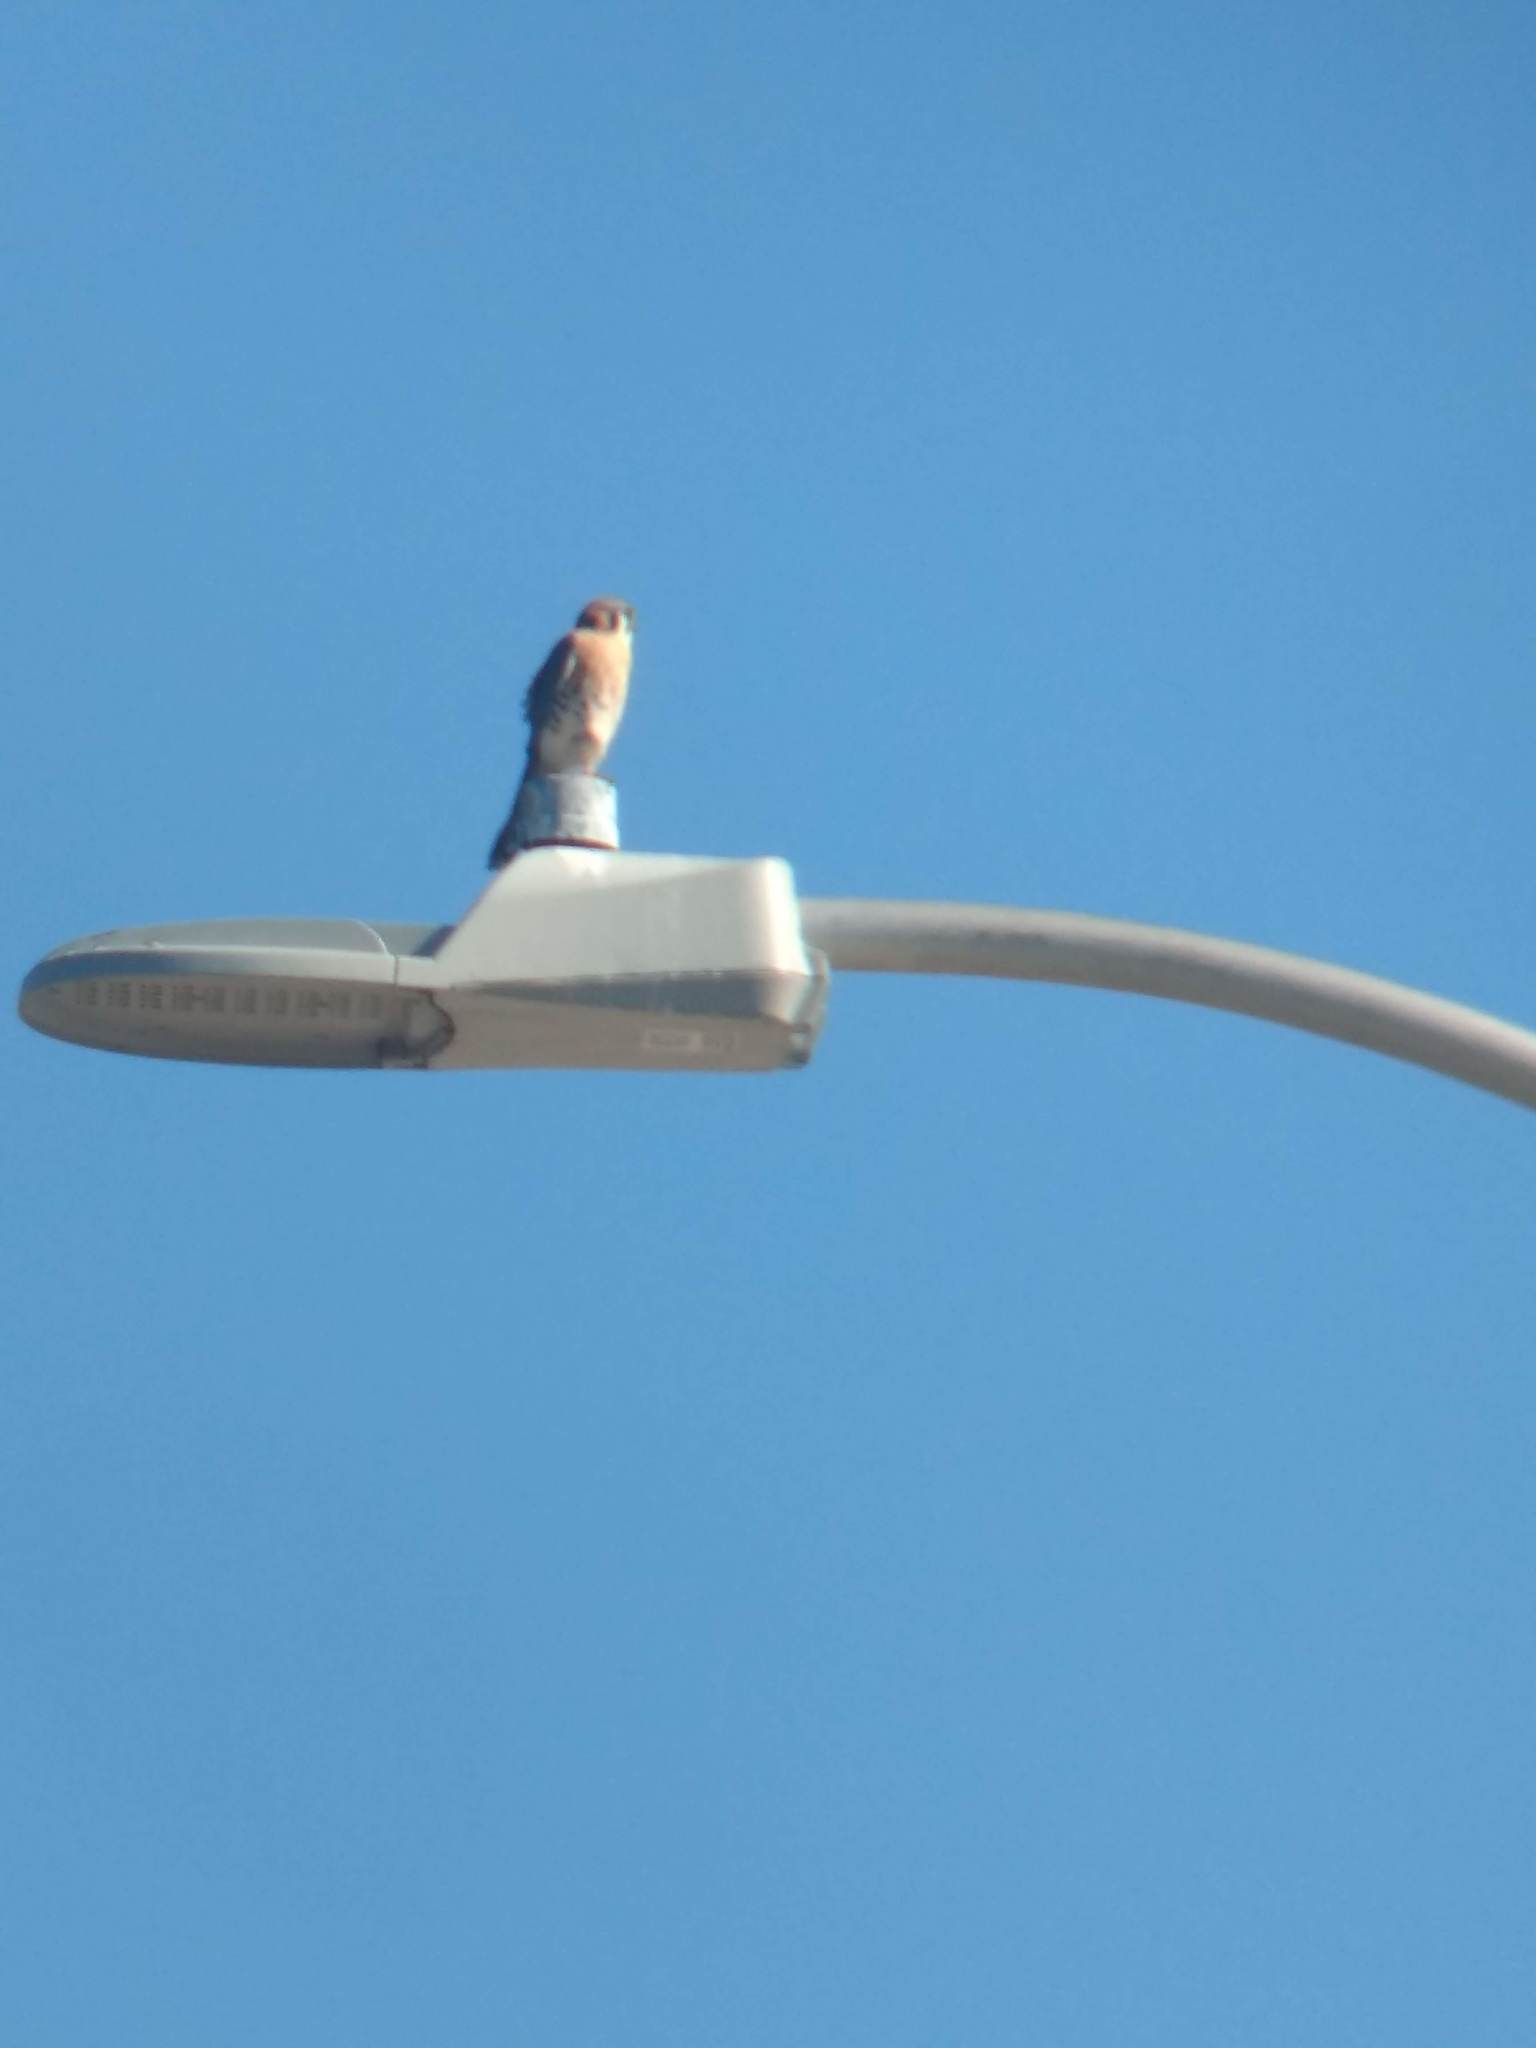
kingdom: Animalia
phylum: Chordata
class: Aves
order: Falconiformes
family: Falconidae
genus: Falco
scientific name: Falco sparverius
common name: American kestrel
